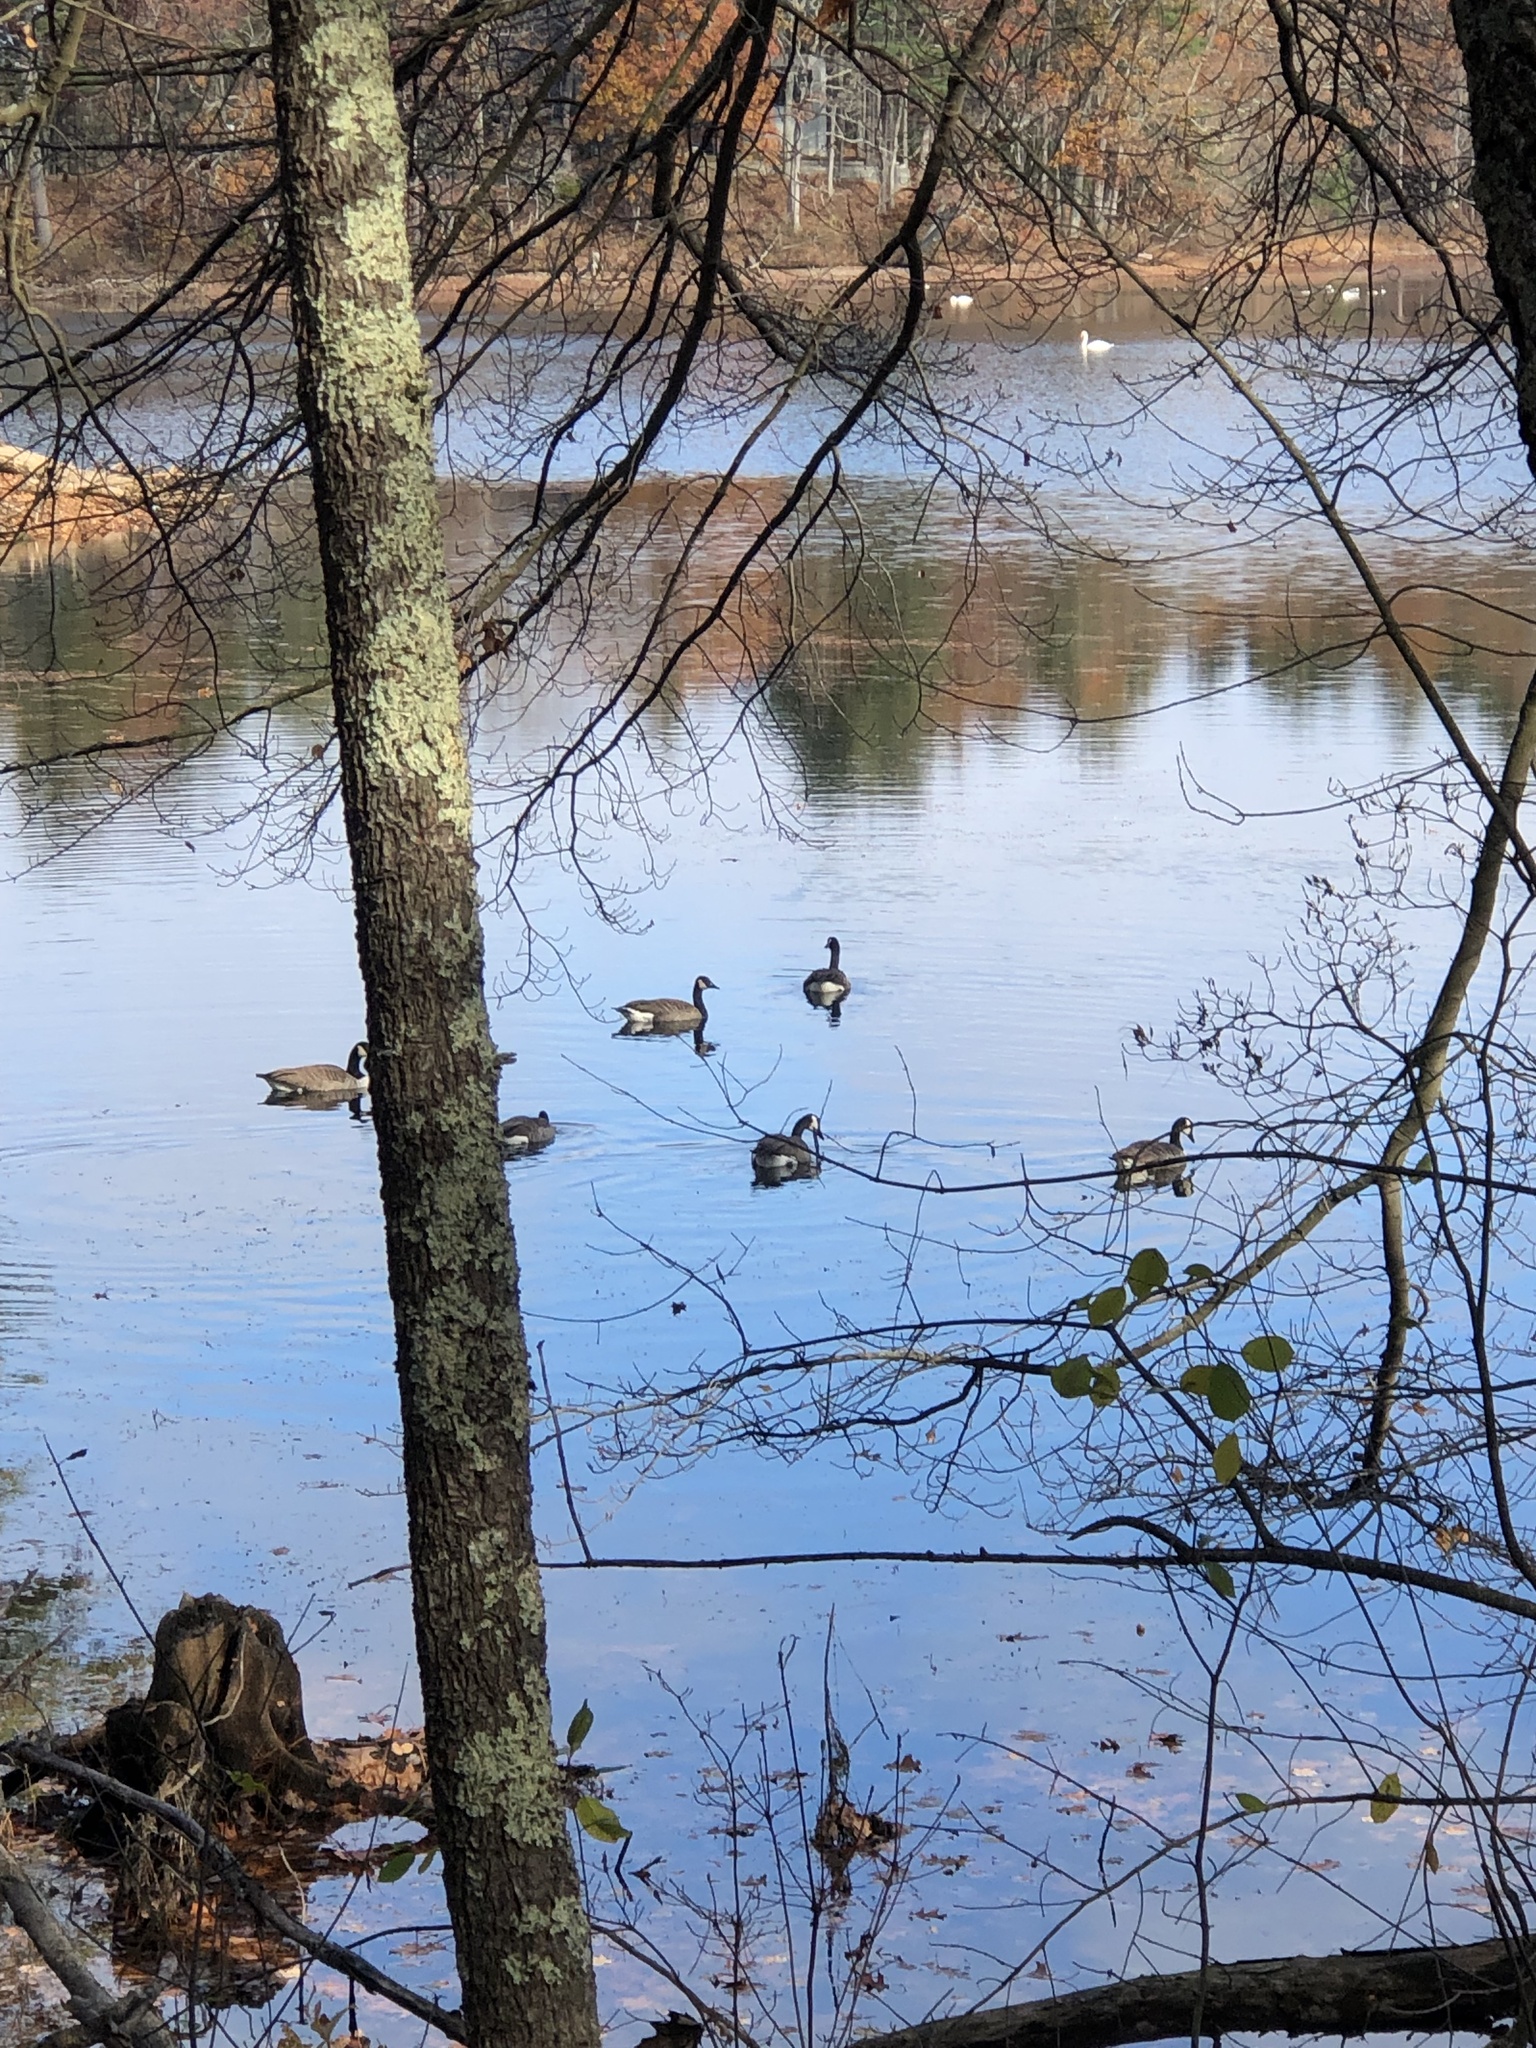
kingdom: Animalia
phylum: Chordata
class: Aves
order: Anseriformes
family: Anatidae
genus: Branta
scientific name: Branta canadensis
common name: Canada goose
